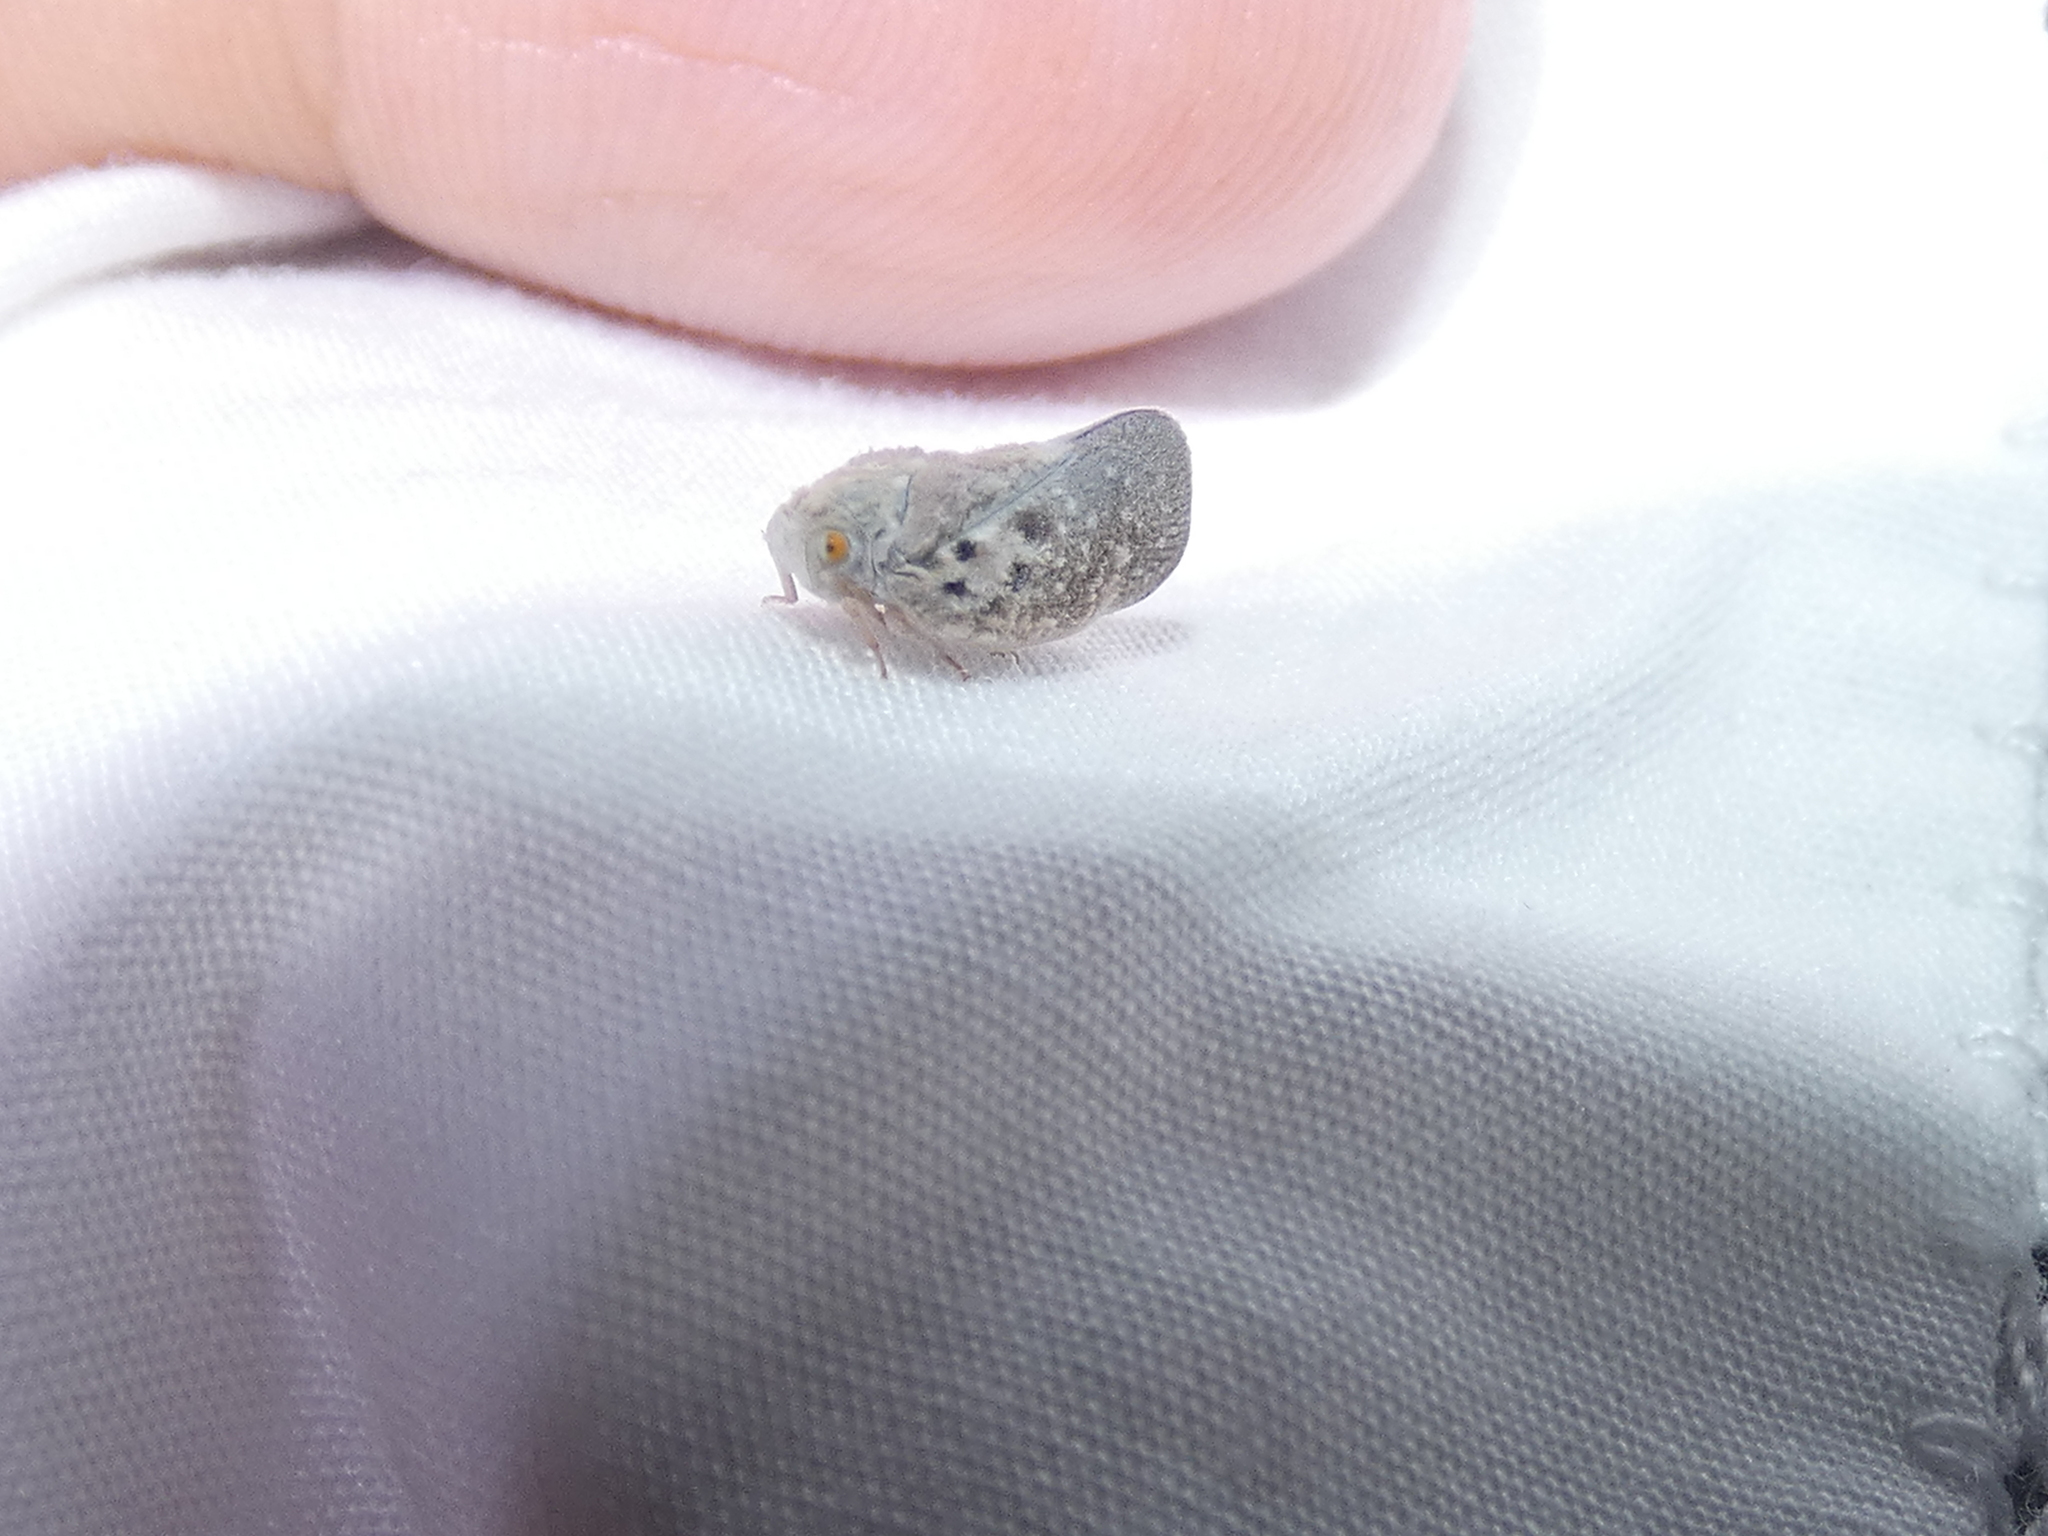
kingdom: Animalia
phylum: Arthropoda
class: Insecta
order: Hemiptera
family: Flatidae
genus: Metcalfa
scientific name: Metcalfa pruinosa
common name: Citrus flatid planthopper
